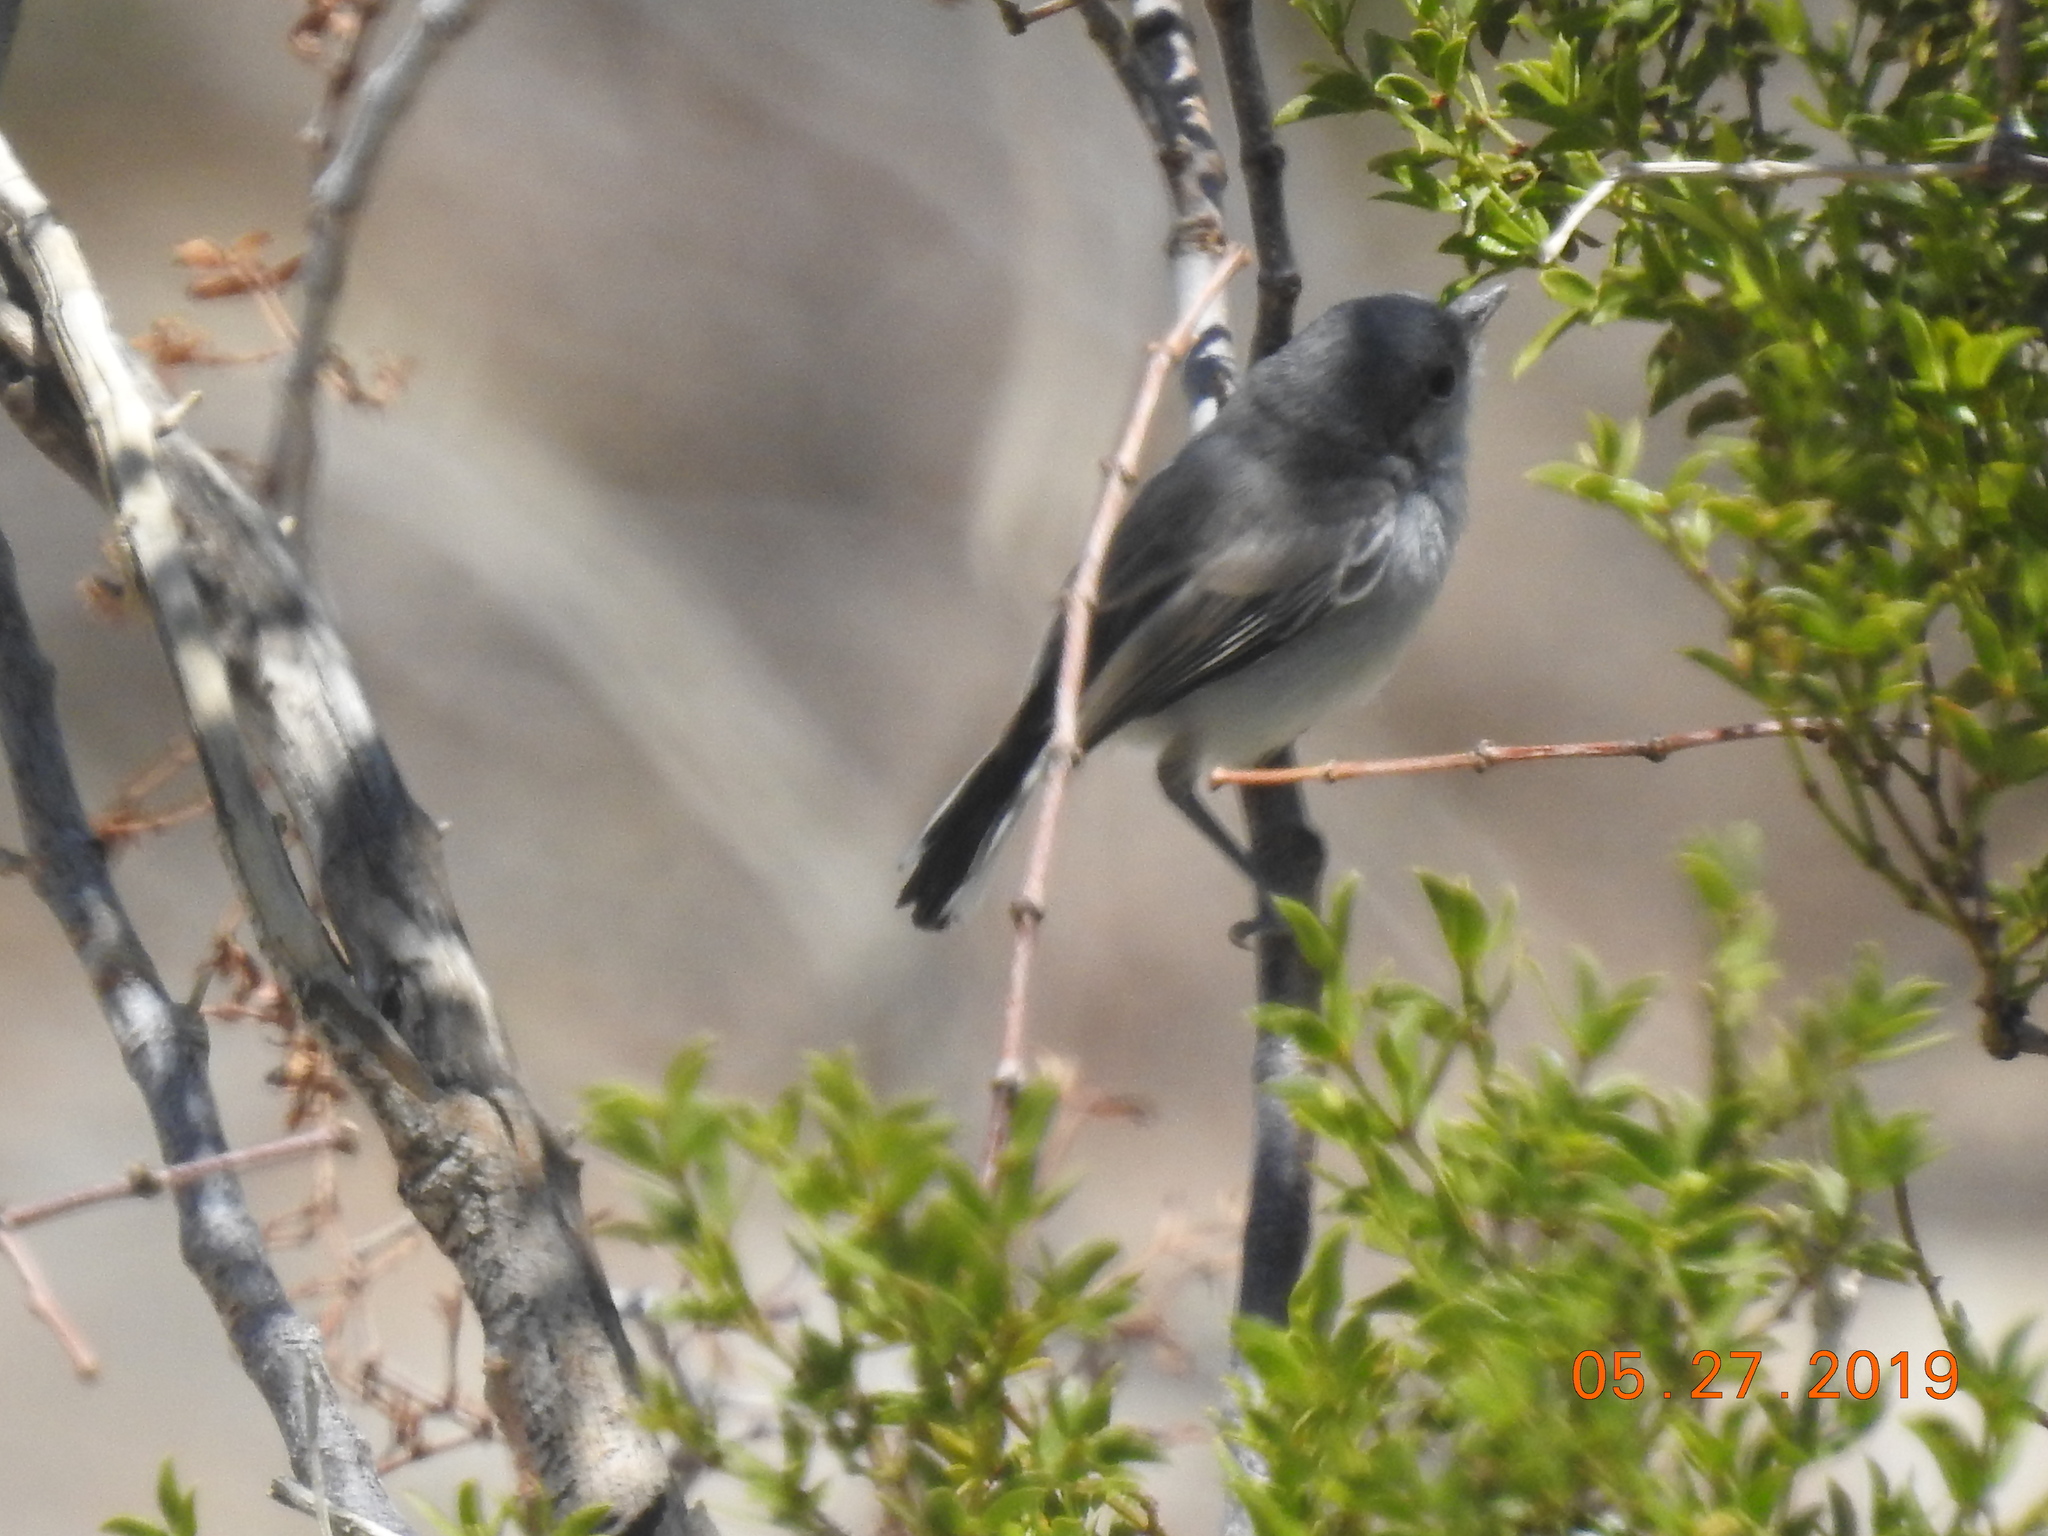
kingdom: Animalia
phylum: Chordata
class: Aves
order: Passeriformes
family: Polioptilidae
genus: Polioptila
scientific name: Polioptila melanura
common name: Black-tailed gnatcatcher
